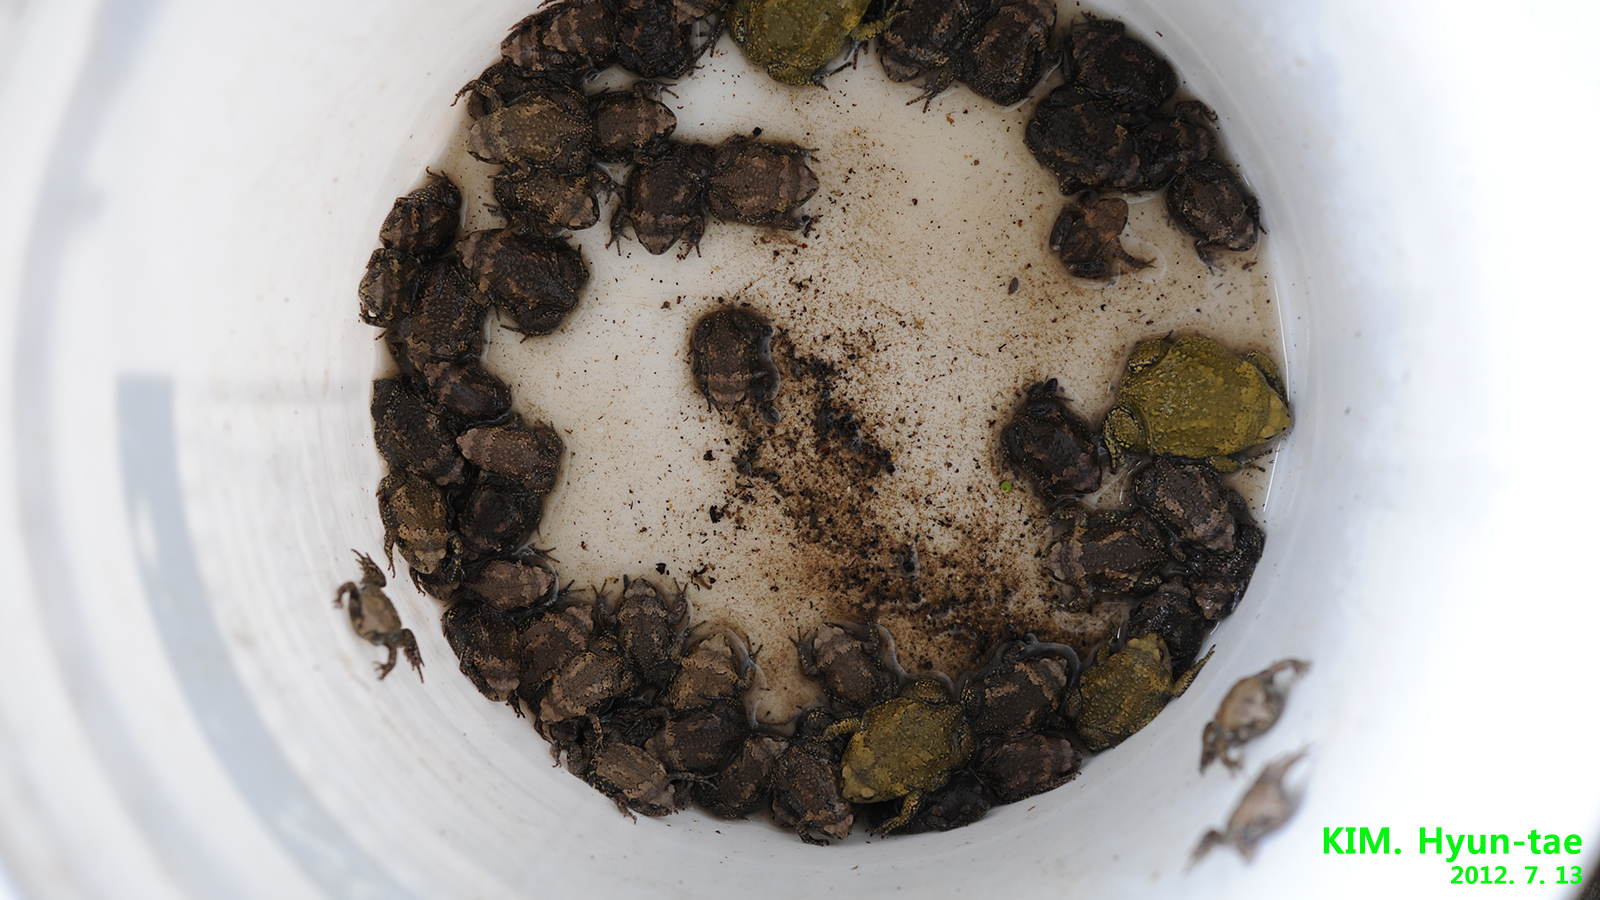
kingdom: Animalia
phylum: Chordata
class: Amphibia
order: Anura
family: Microhylidae
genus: Kaloula
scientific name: Kaloula borealis
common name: Boreal digging frog
